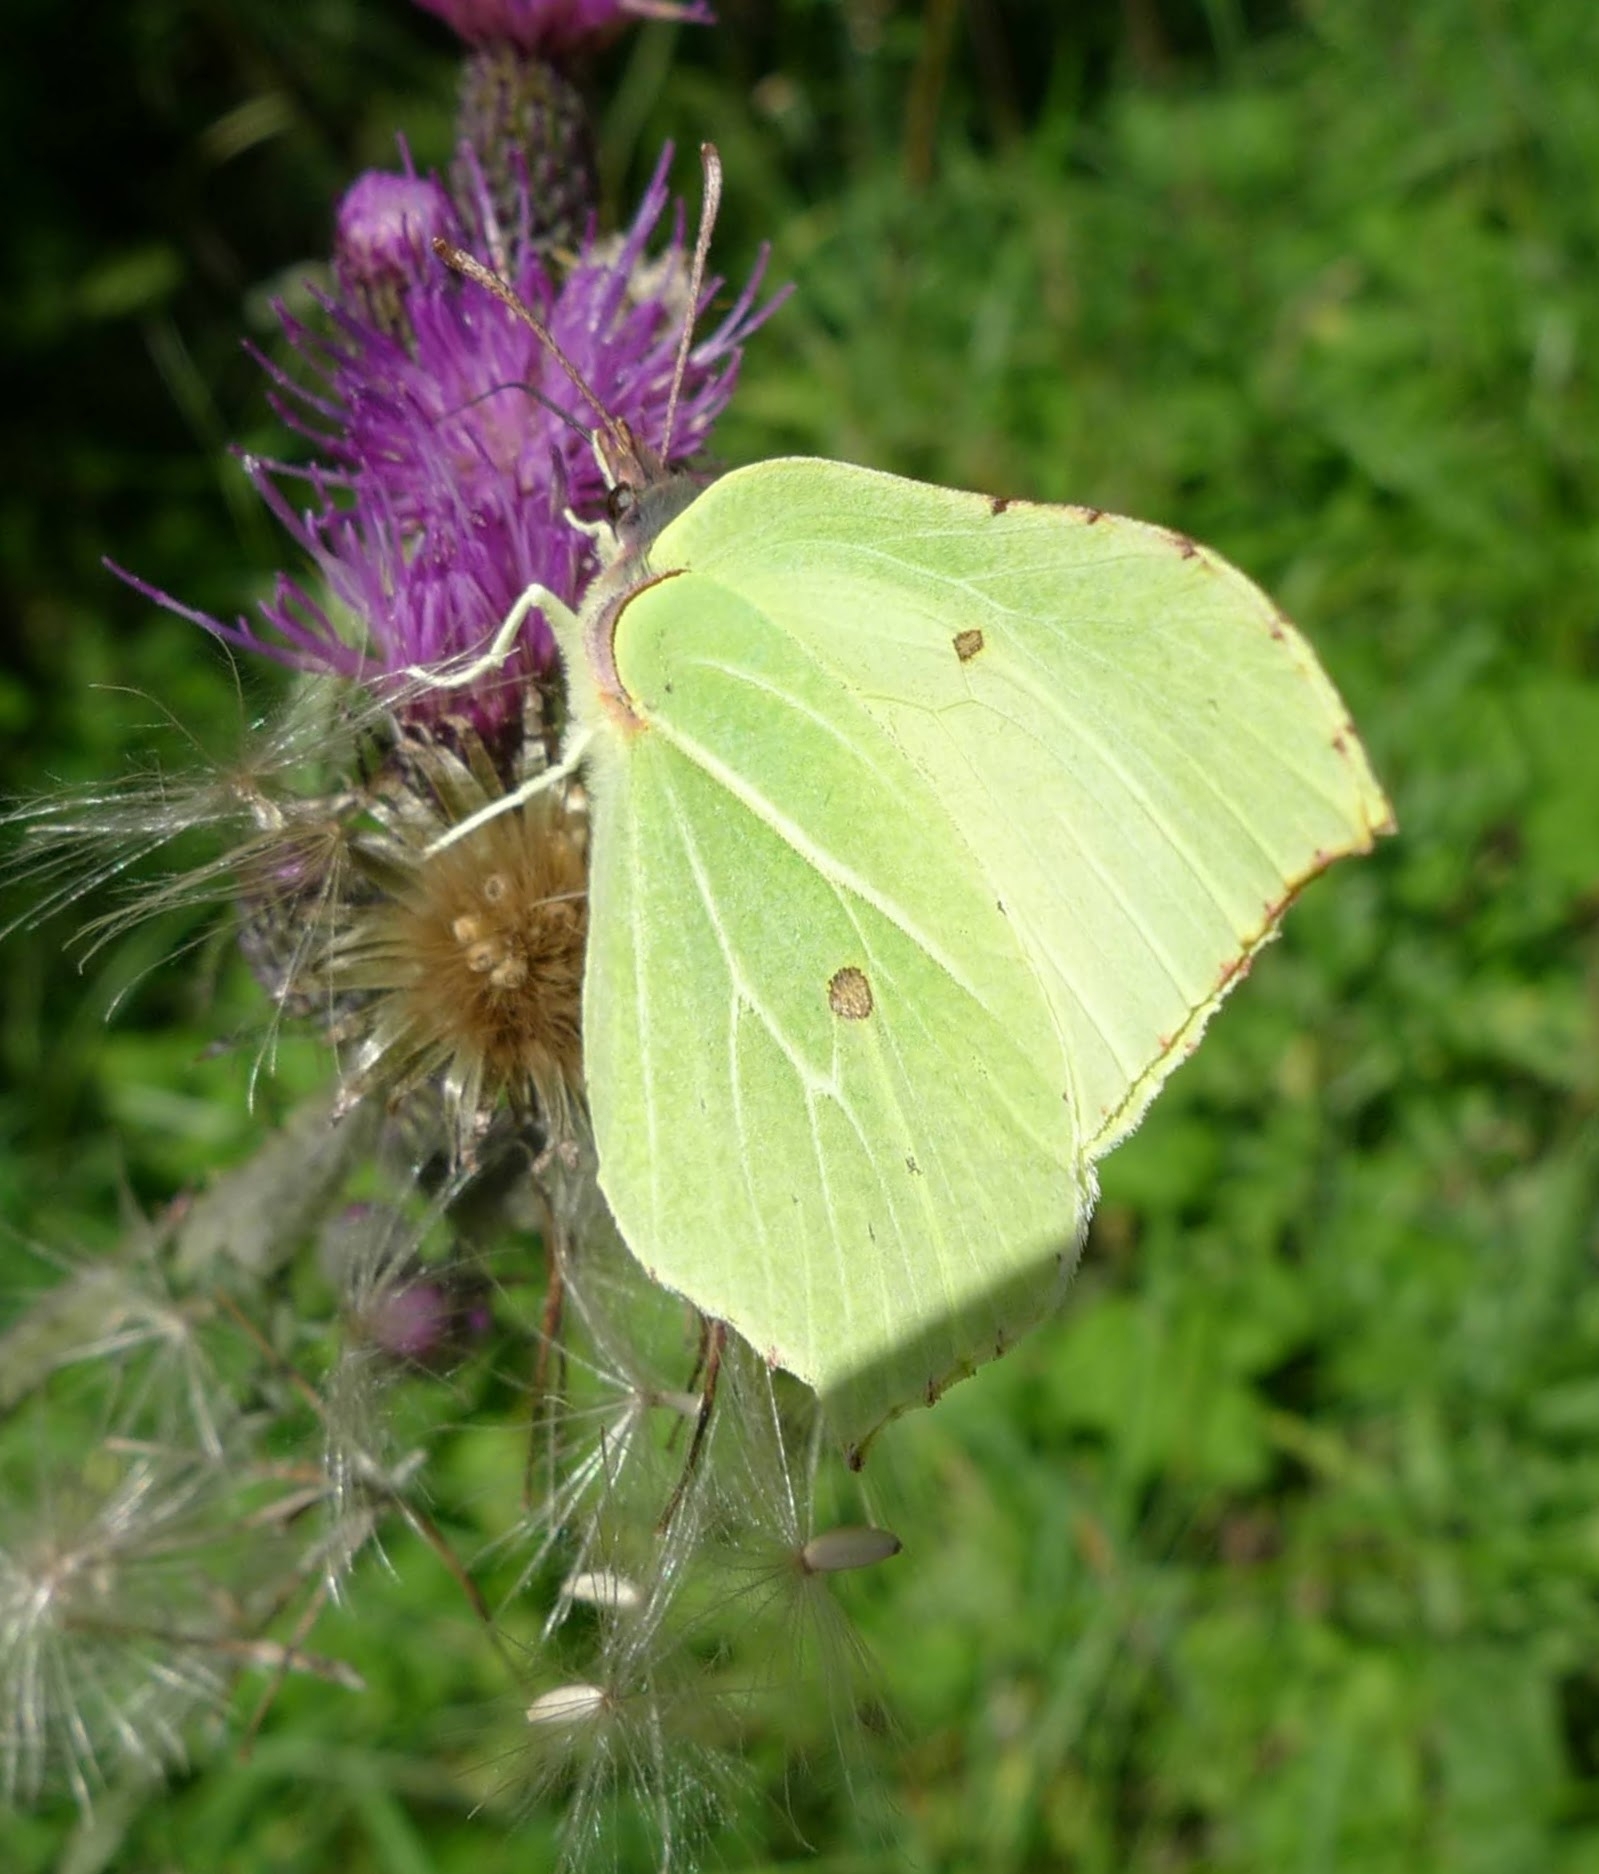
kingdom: Animalia
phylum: Arthropoda
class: Insecta
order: Lepidoptera
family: Pieridae
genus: Gonepteryx
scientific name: Gonepteryx rhamni
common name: Brimstone
